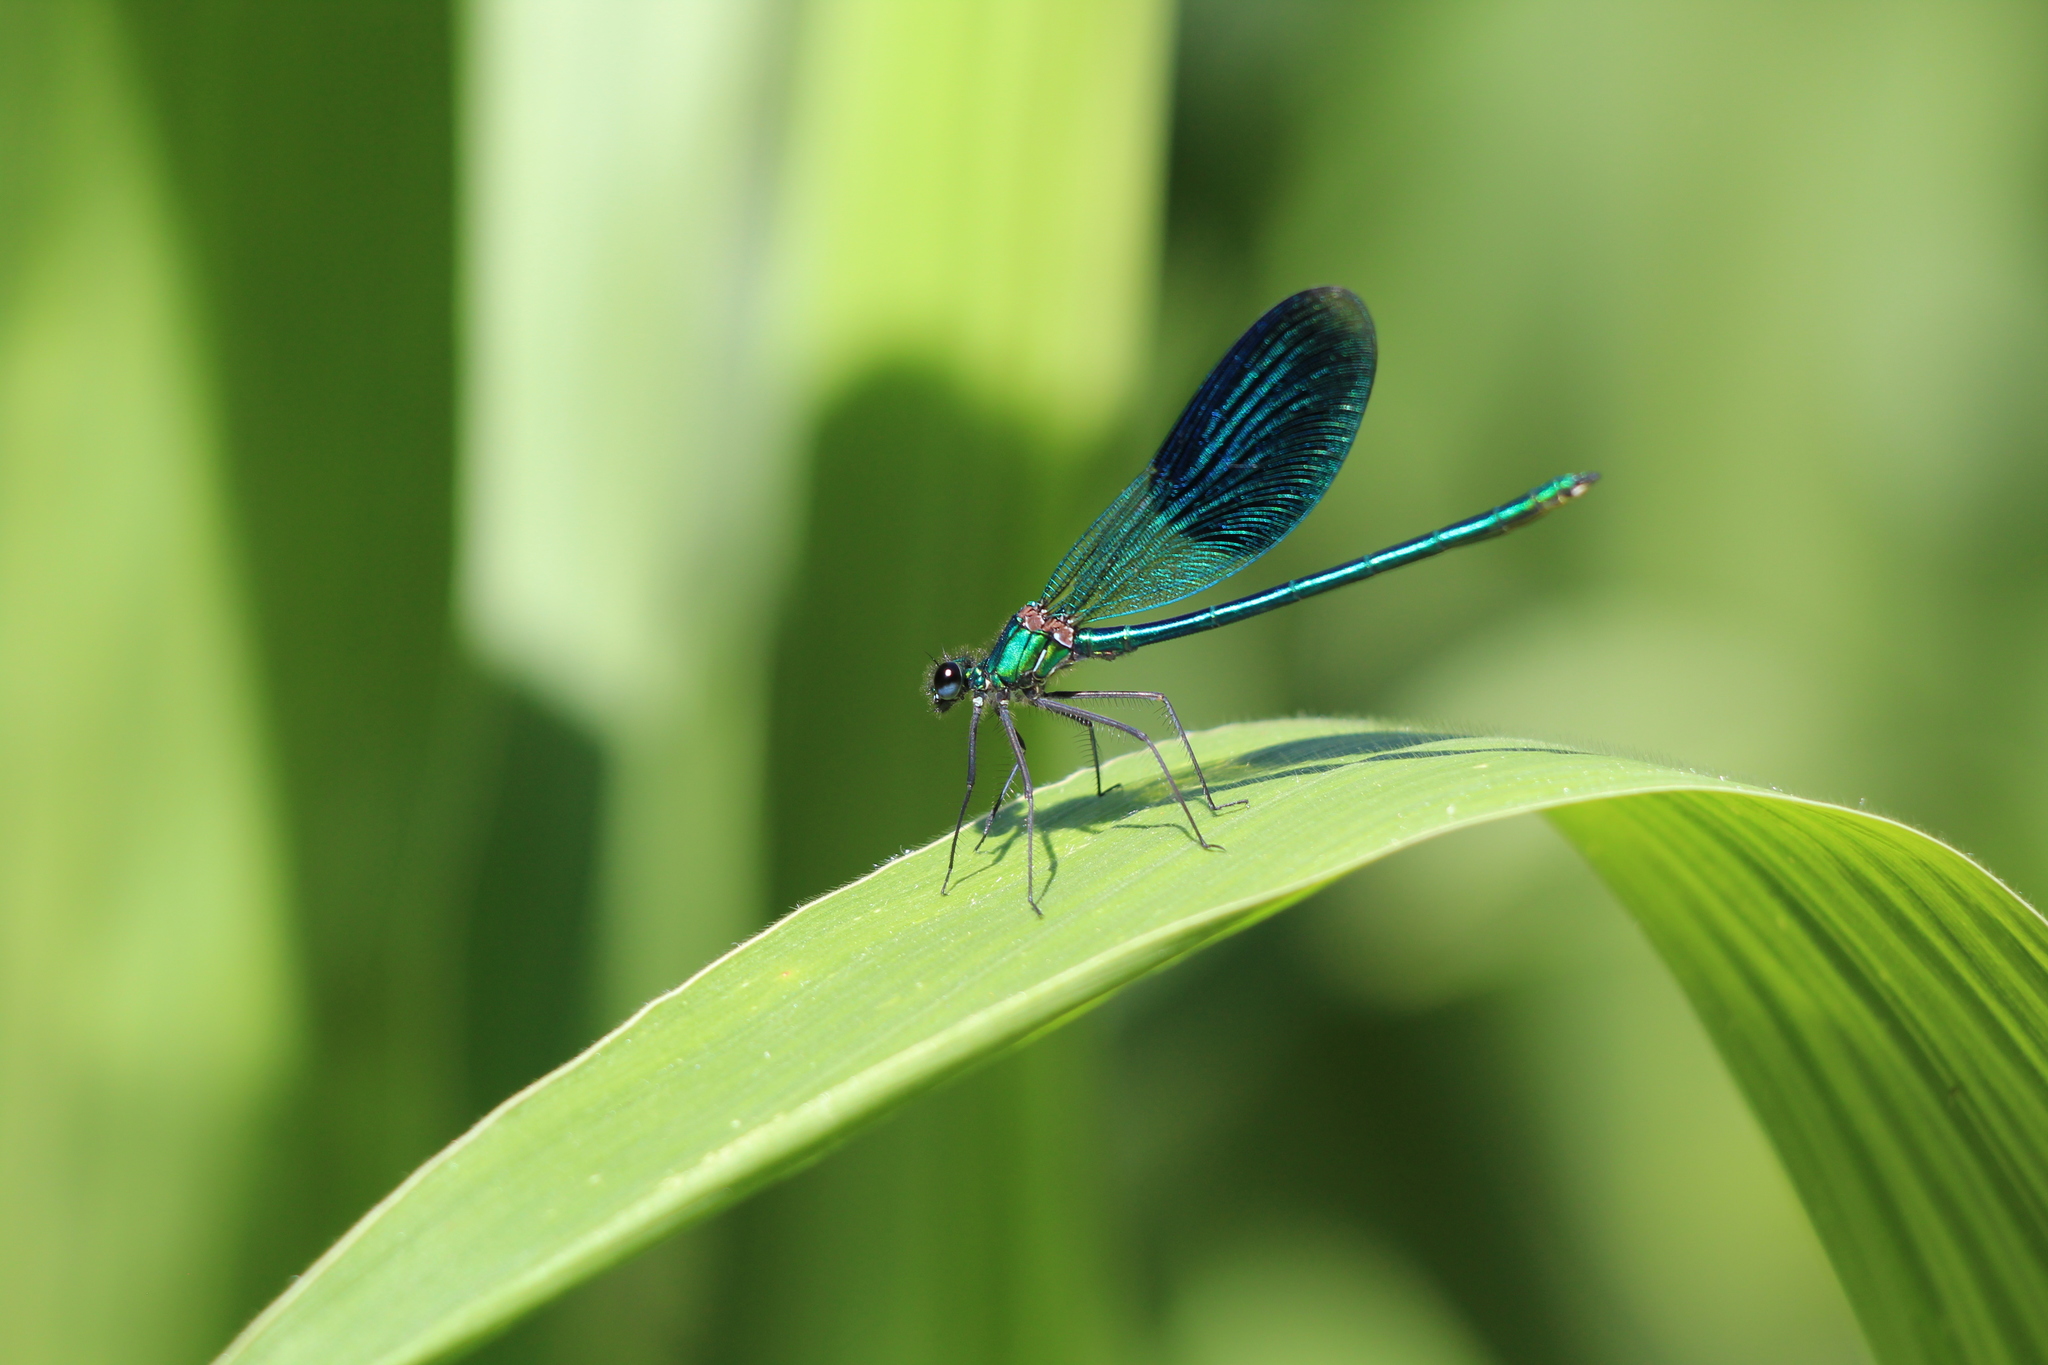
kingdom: Animalia
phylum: Arthropoda
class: Insecta
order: Odonata
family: Calopterygidae
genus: Calopteryx
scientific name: Calopteryx splendens
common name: Banded demoiselle
